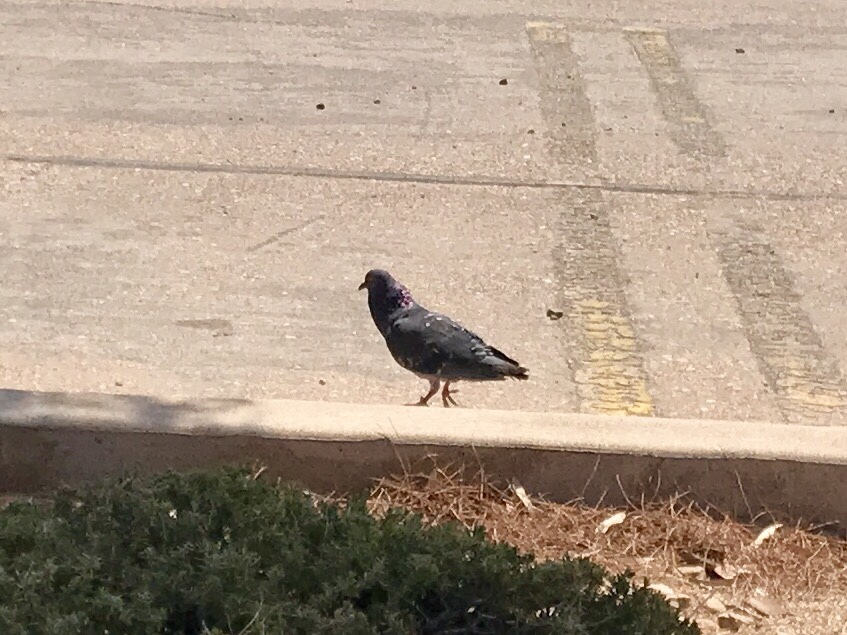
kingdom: Animalia
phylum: Chordata
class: Aves
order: Columbiformes
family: Columbidae
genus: Columba
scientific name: Columba livia
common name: Rock pigeon
